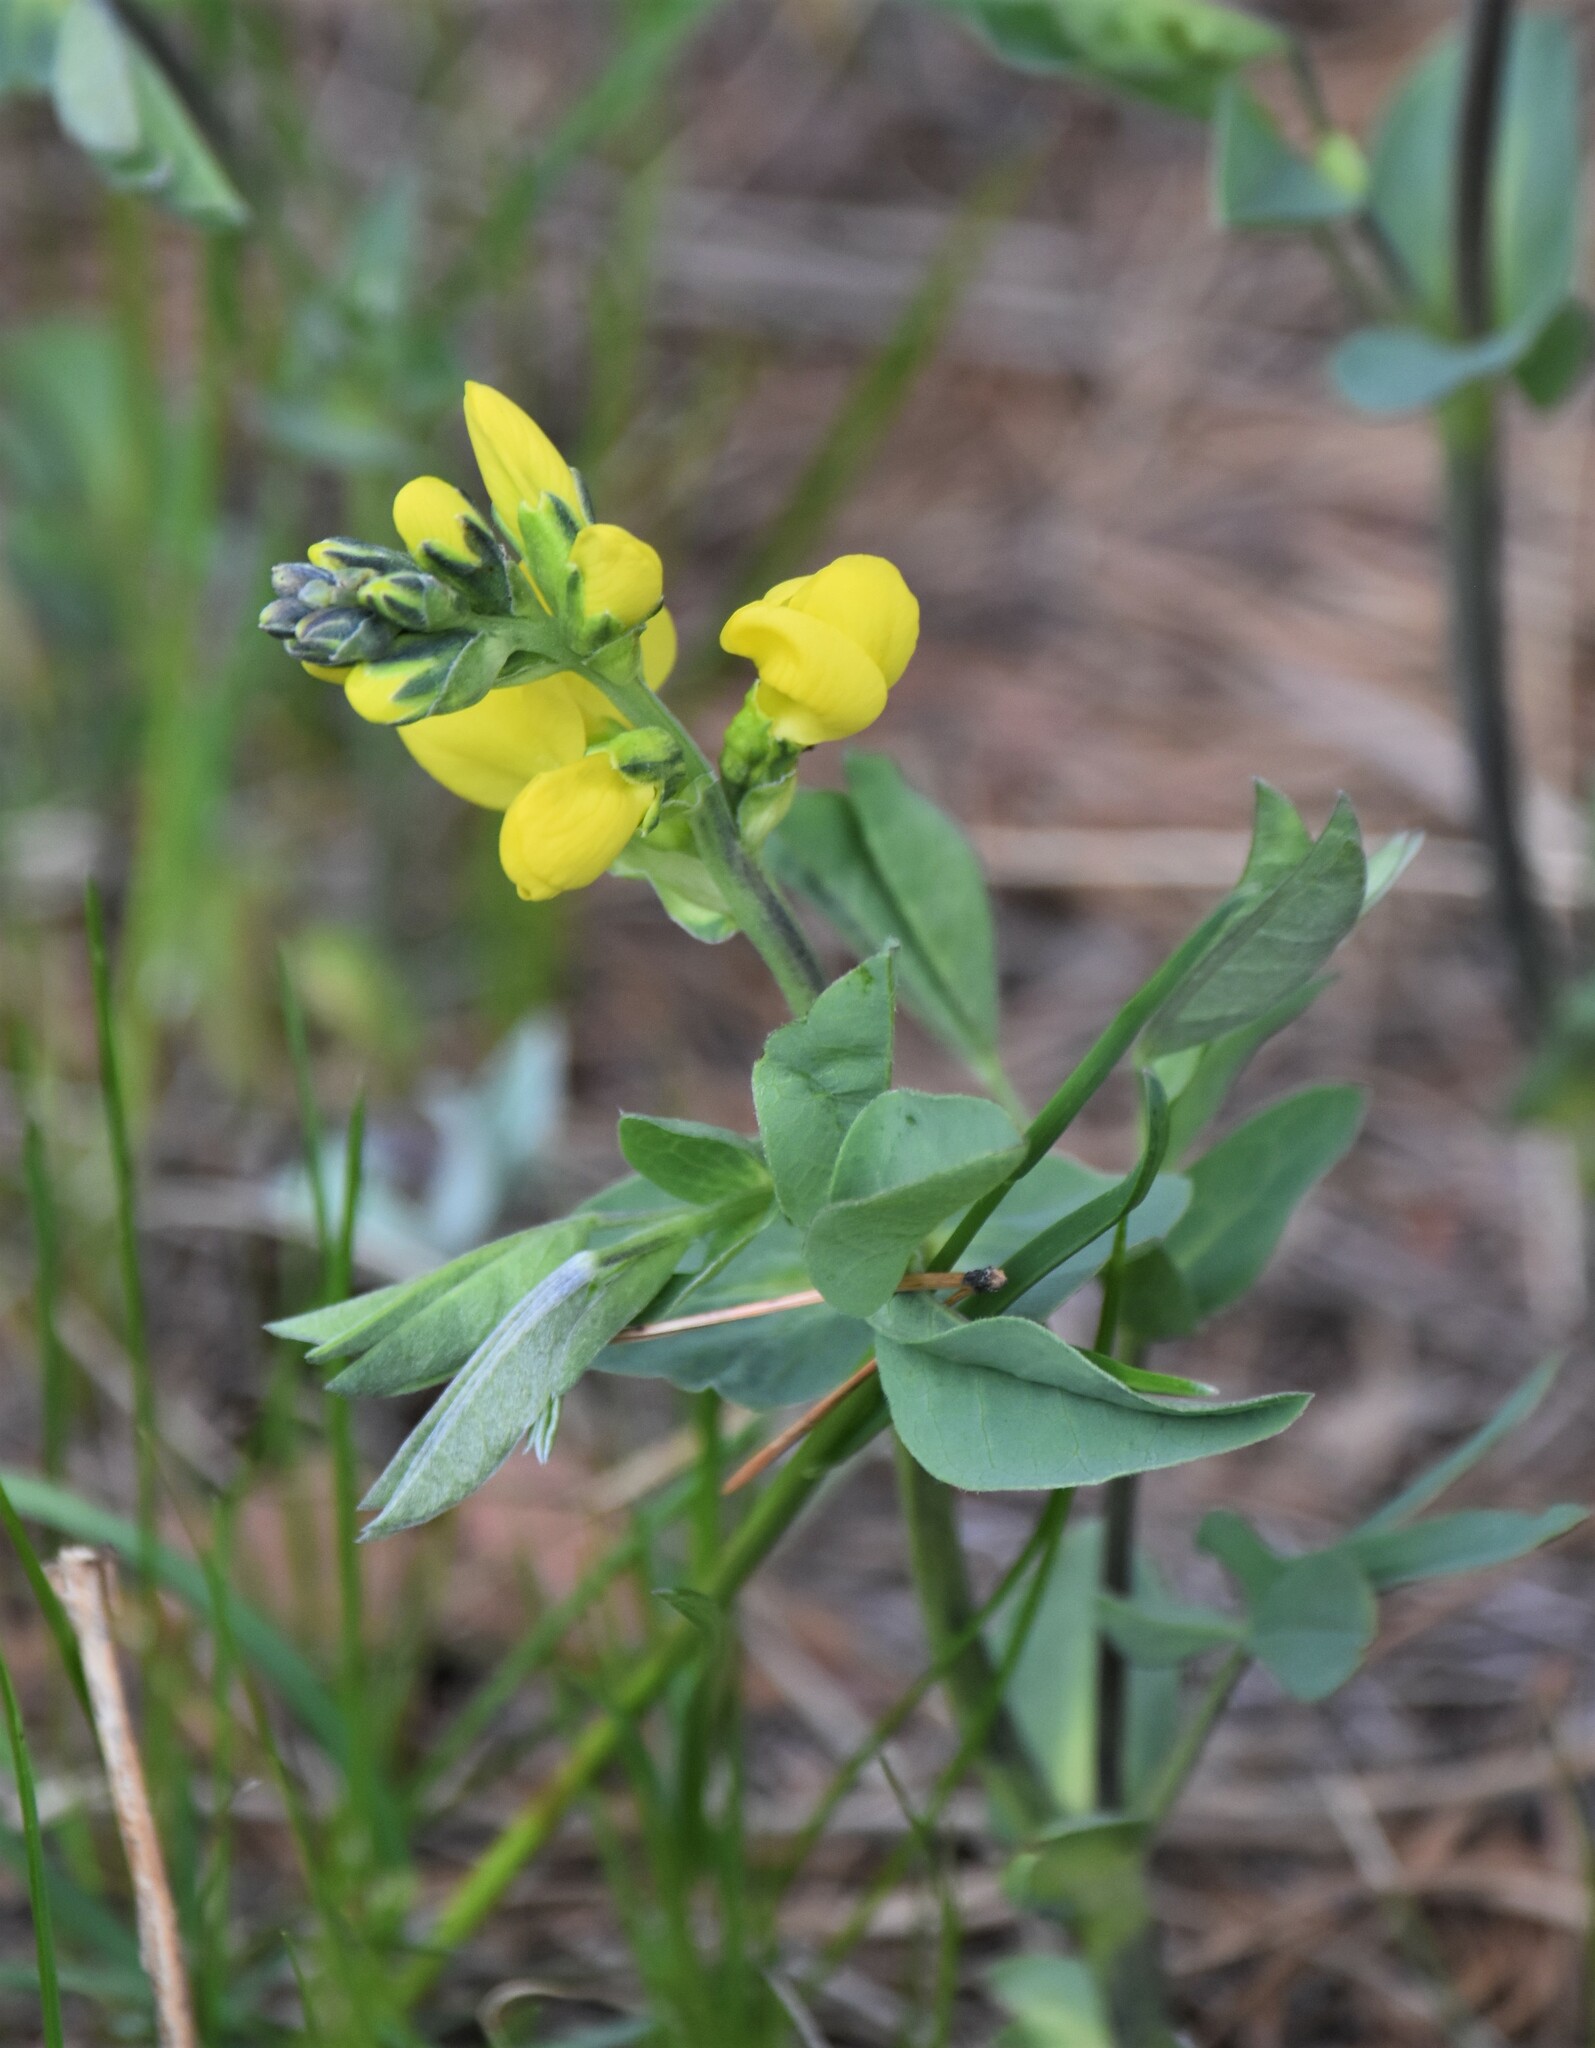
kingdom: Plantae
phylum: Tracheophyta
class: Magnoliopsida
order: Fabales
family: Fabaceae
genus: Thermopsis
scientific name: Thermopsis rhombifolia
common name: Circle-pod-pea
